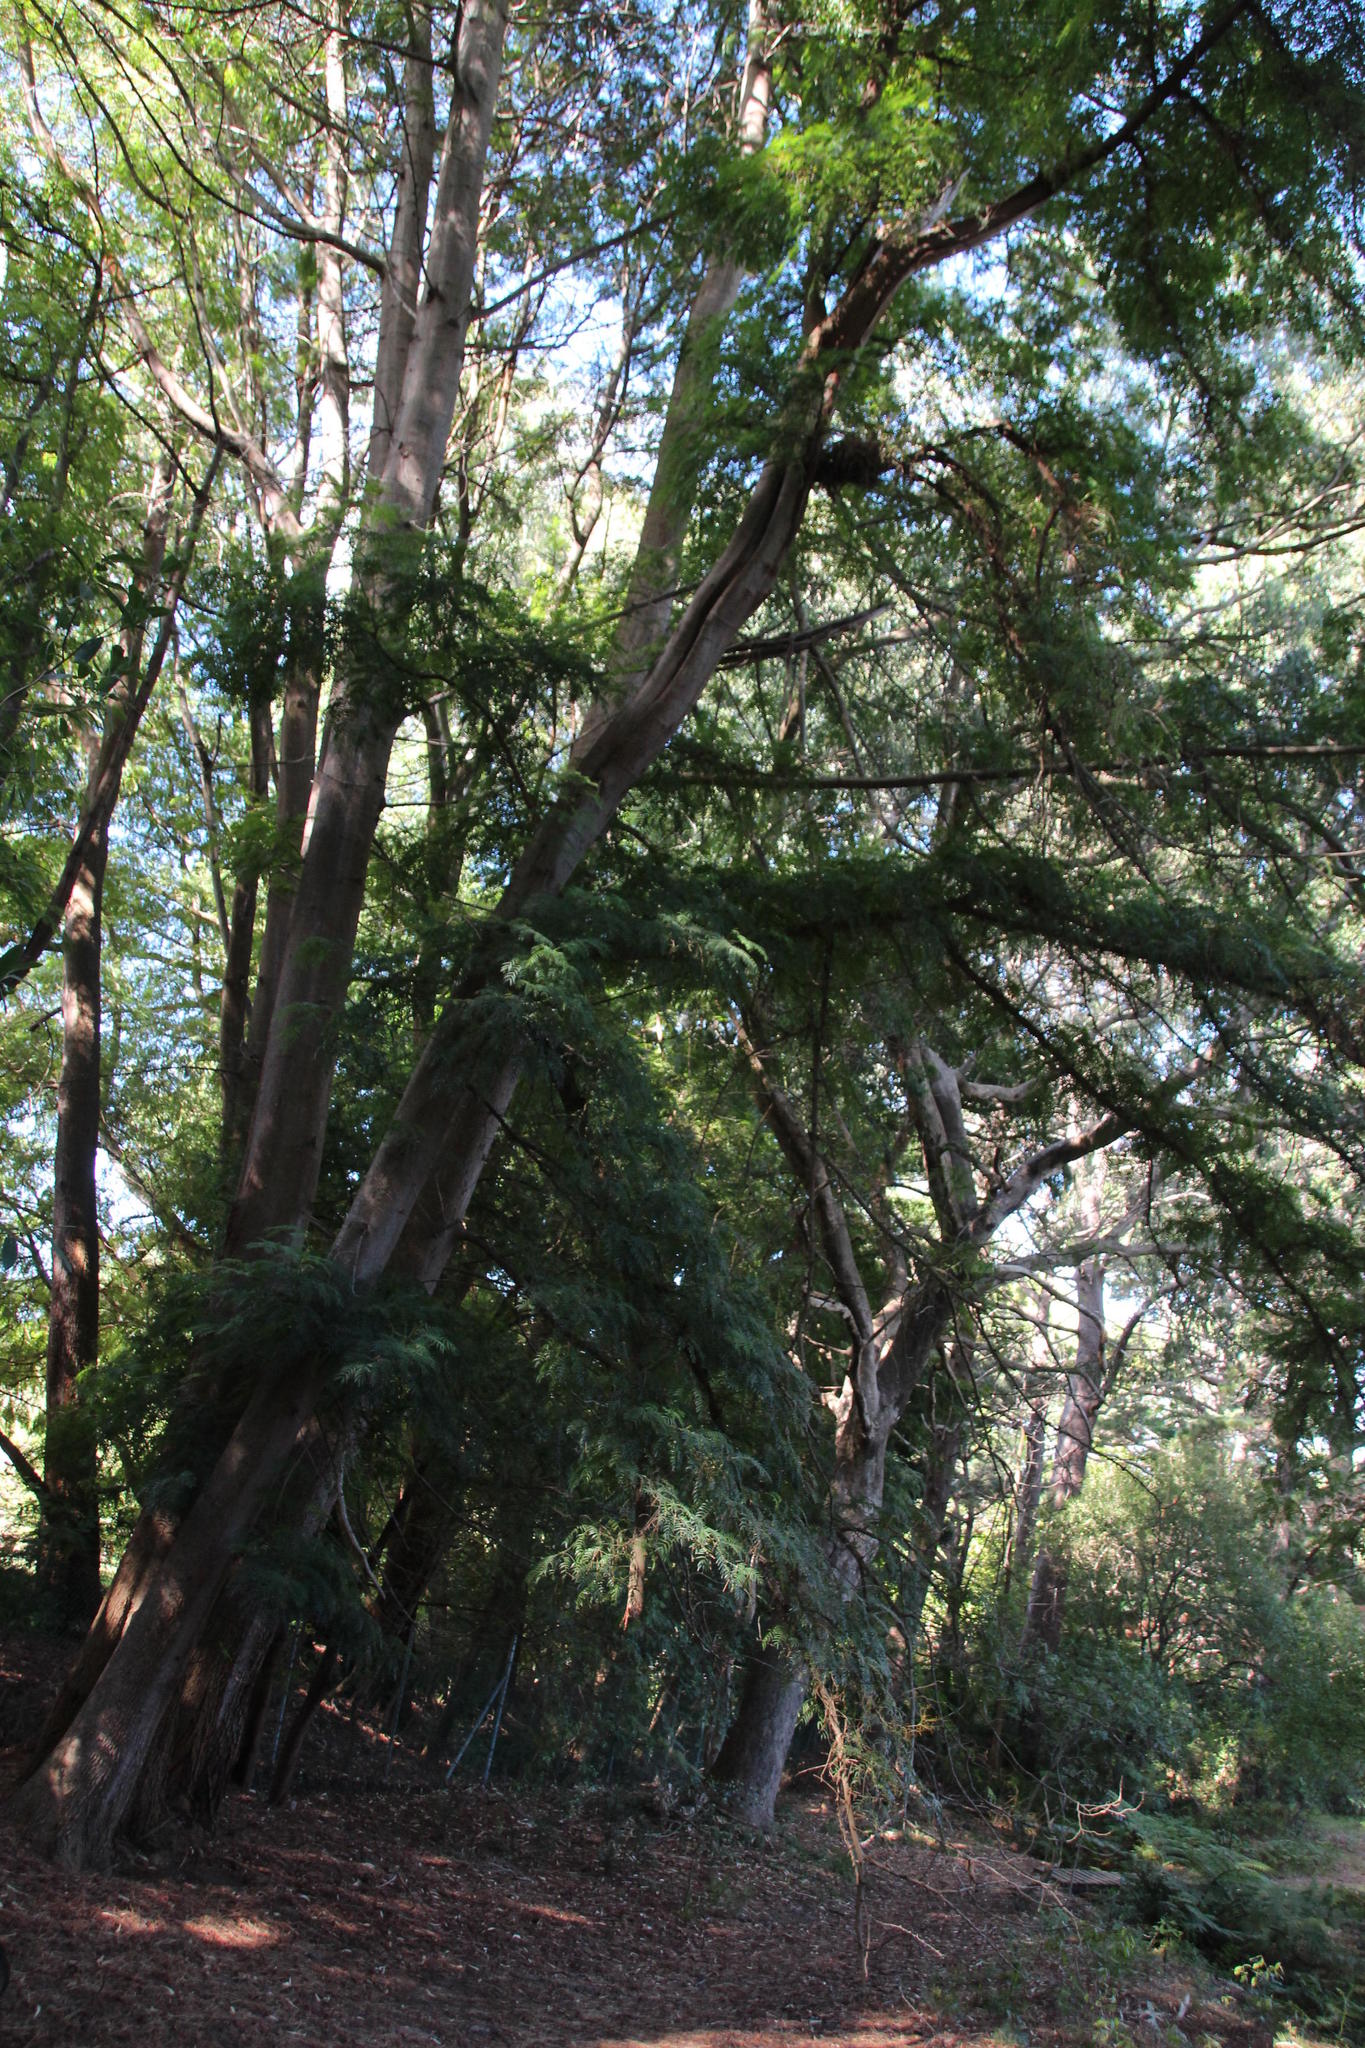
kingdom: Plantae
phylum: Tracheophyta
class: Magnoliopsida
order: Fabales
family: Fabaceae
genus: Acacia
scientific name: Acacia elata
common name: Cedar wattle
